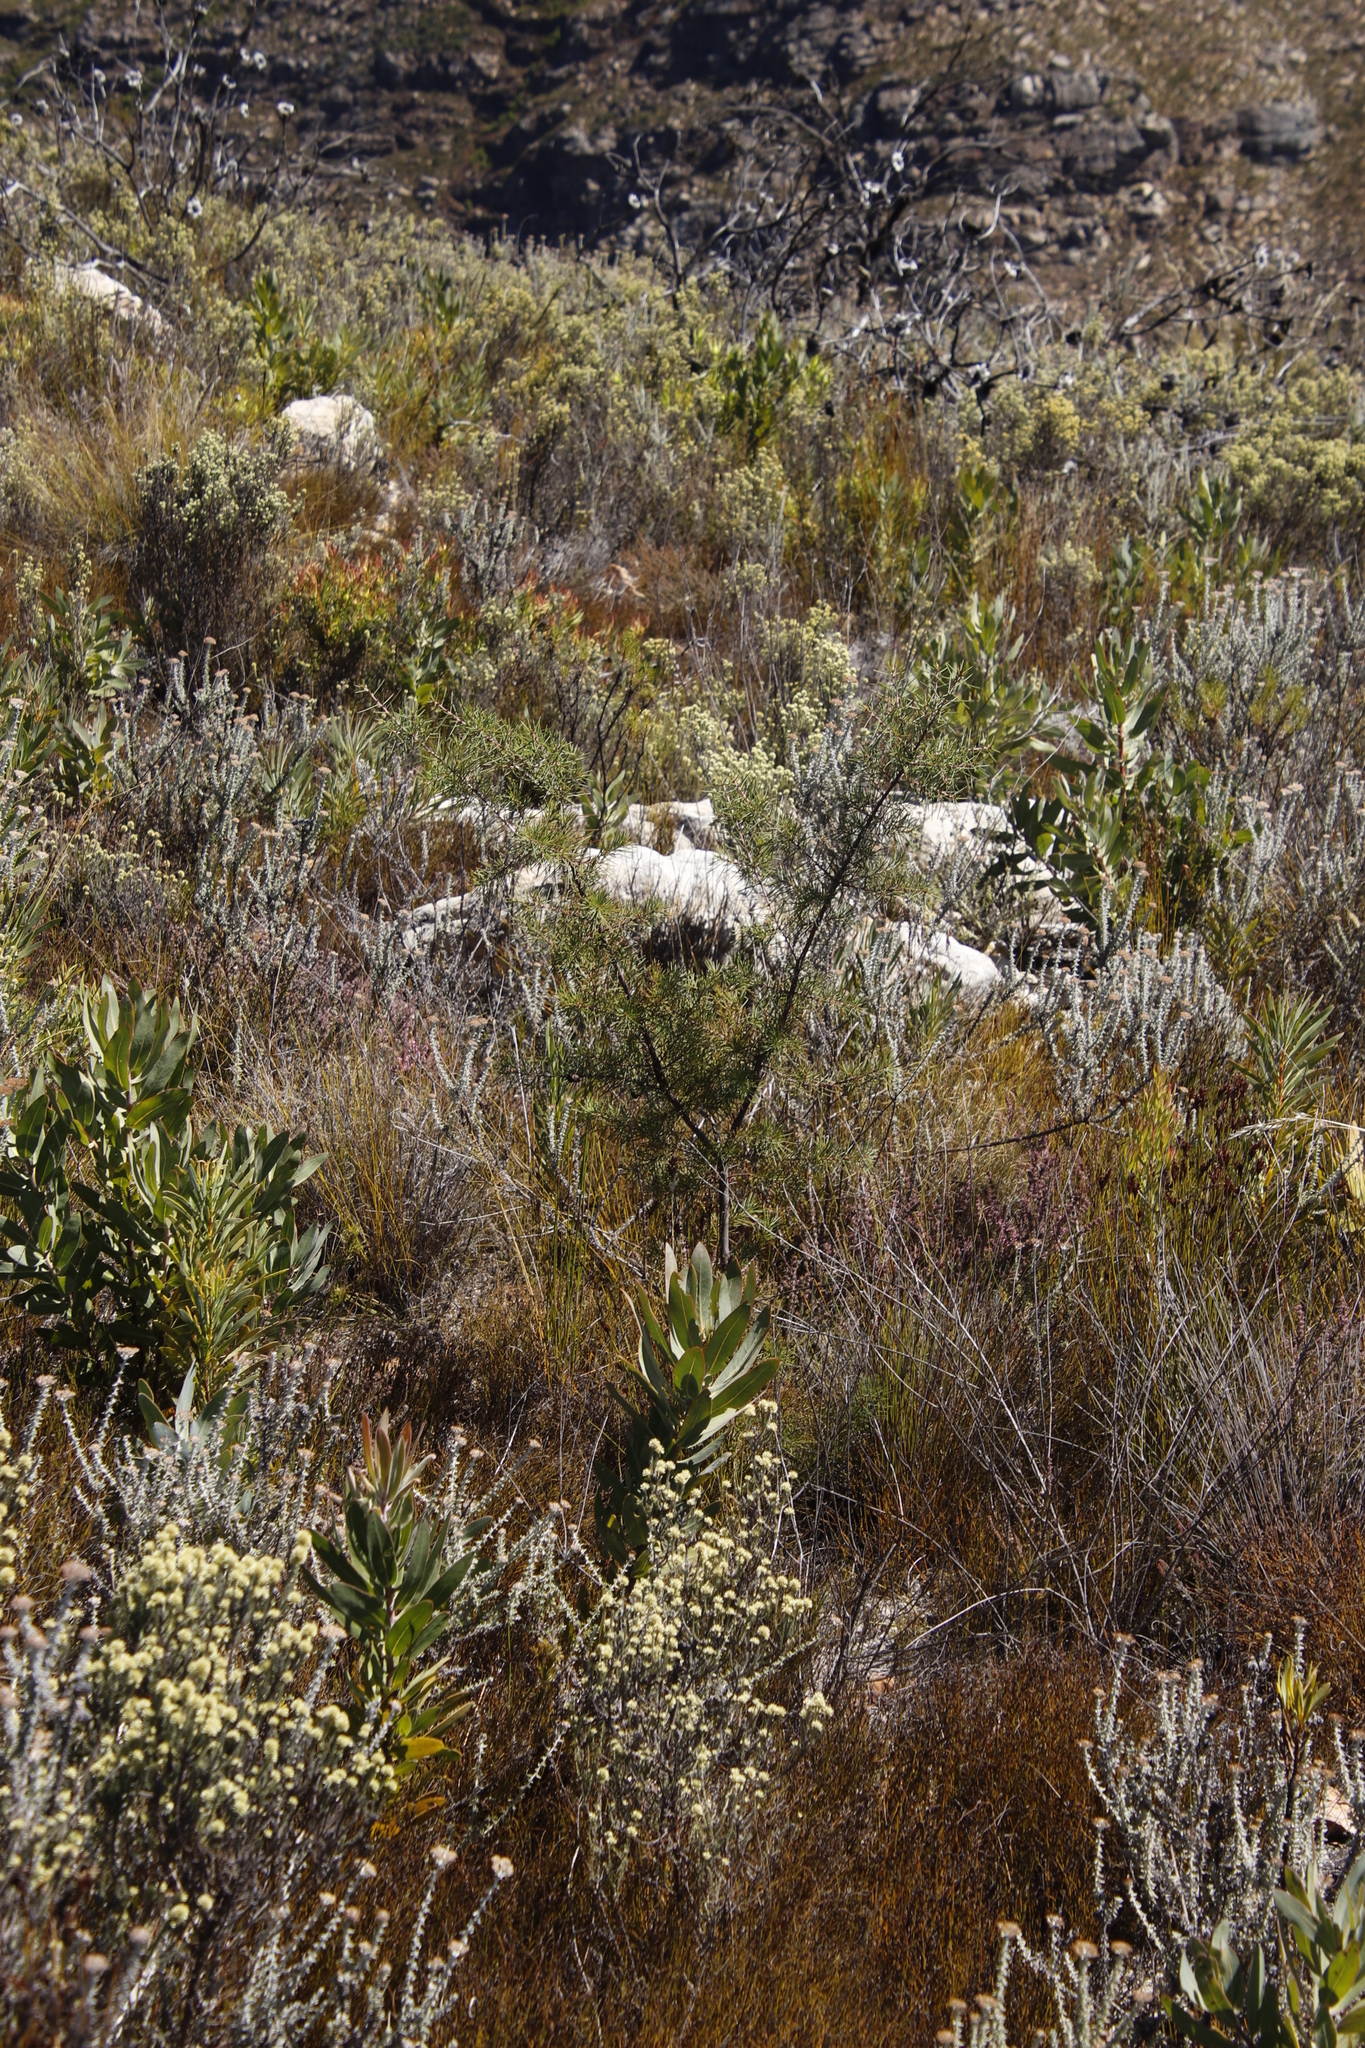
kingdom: Plantae
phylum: Tracheophyta
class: Magnoliopsida
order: Proteales
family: Proteaceae
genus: Hakea
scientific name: Hakea sericea
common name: Needle bush
